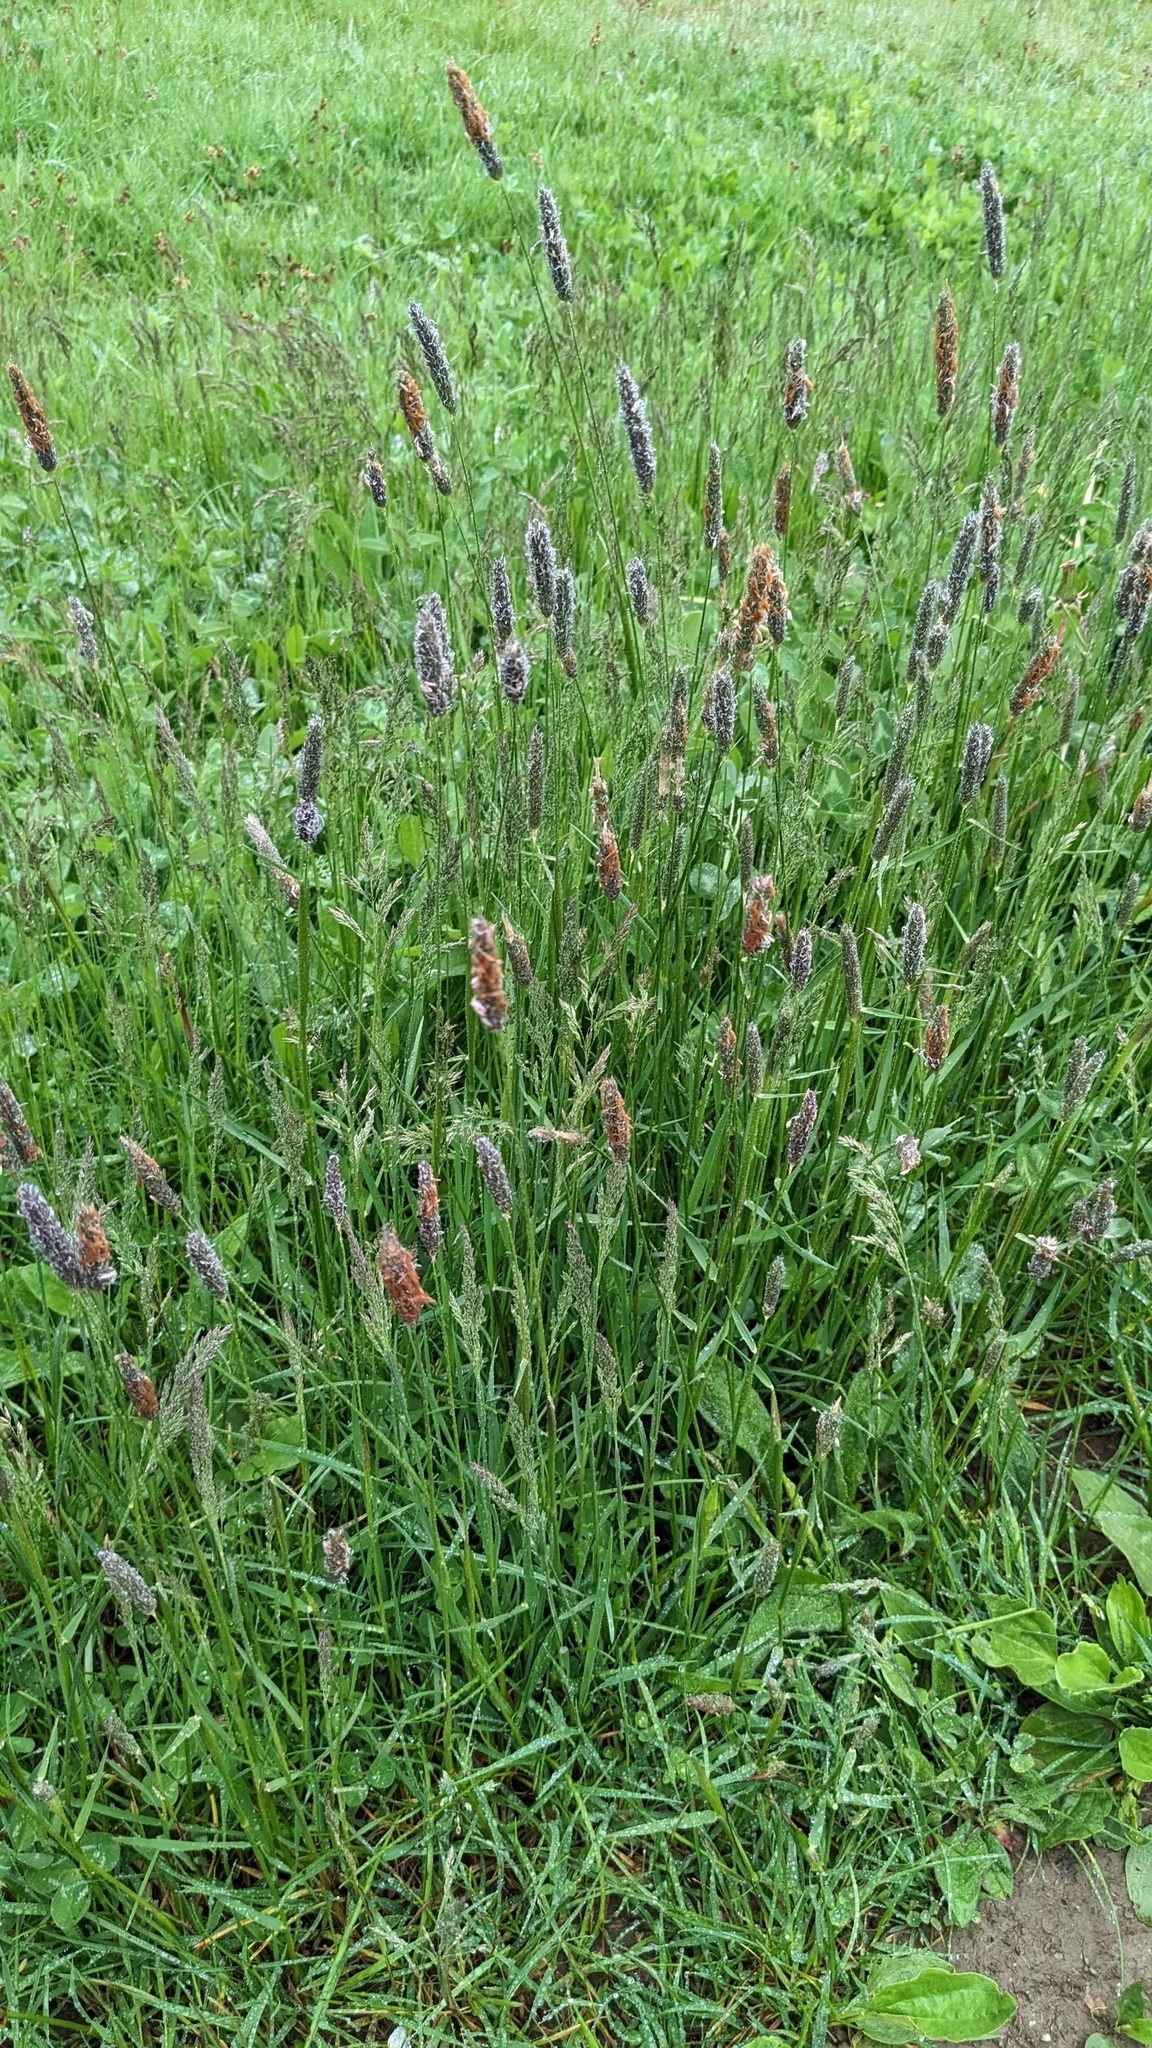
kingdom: Plantae
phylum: Tracheophyta
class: Liliopsida
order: Poales
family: Poaceae
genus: Alopecurus
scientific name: Alopecurus pratensis
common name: Meadow foxtail
